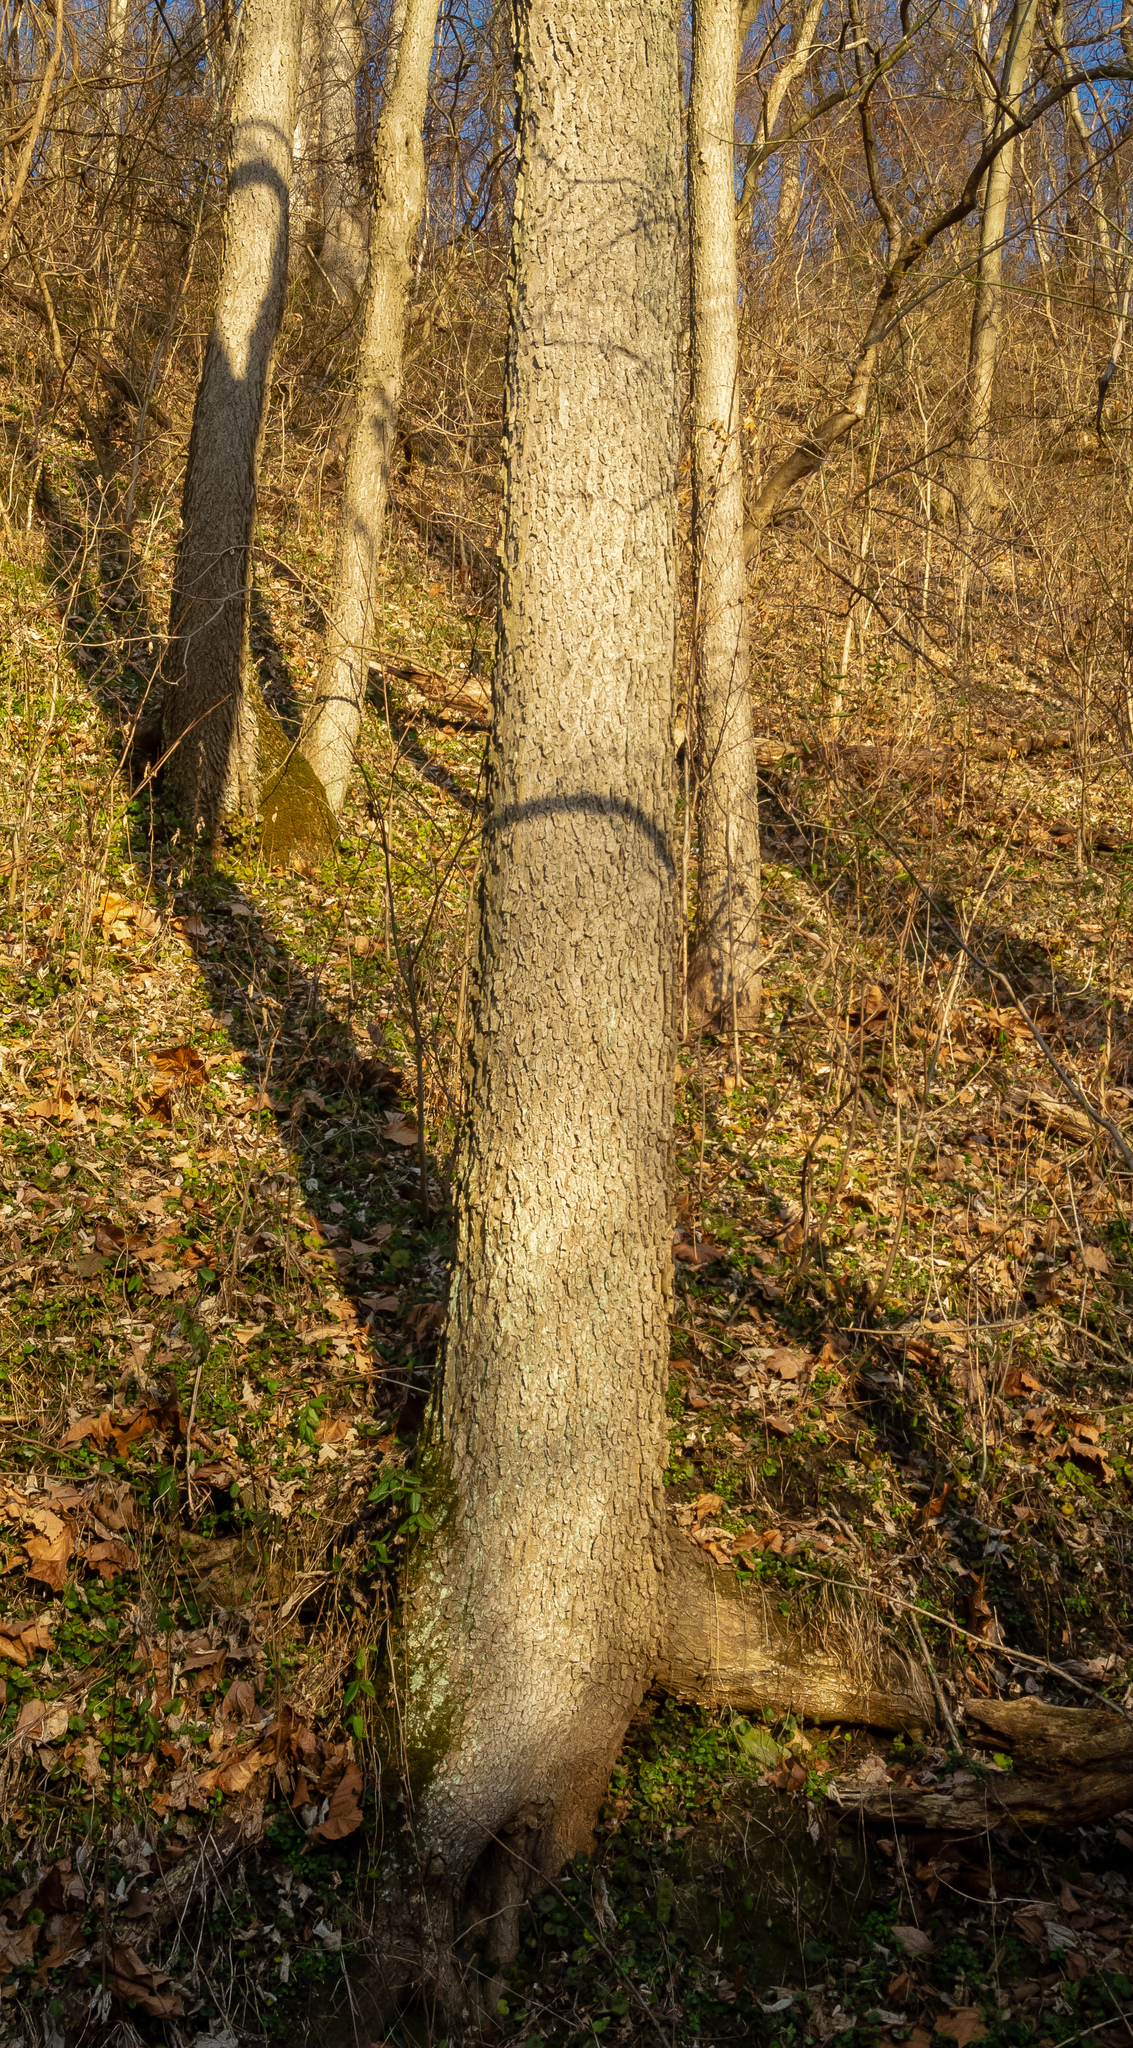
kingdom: Plantae
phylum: Tracheophyta
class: Magnoliopsida
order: Rosales
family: Cannabaceae
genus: Celtis
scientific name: Celtis occidentalis
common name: Common hackberry
